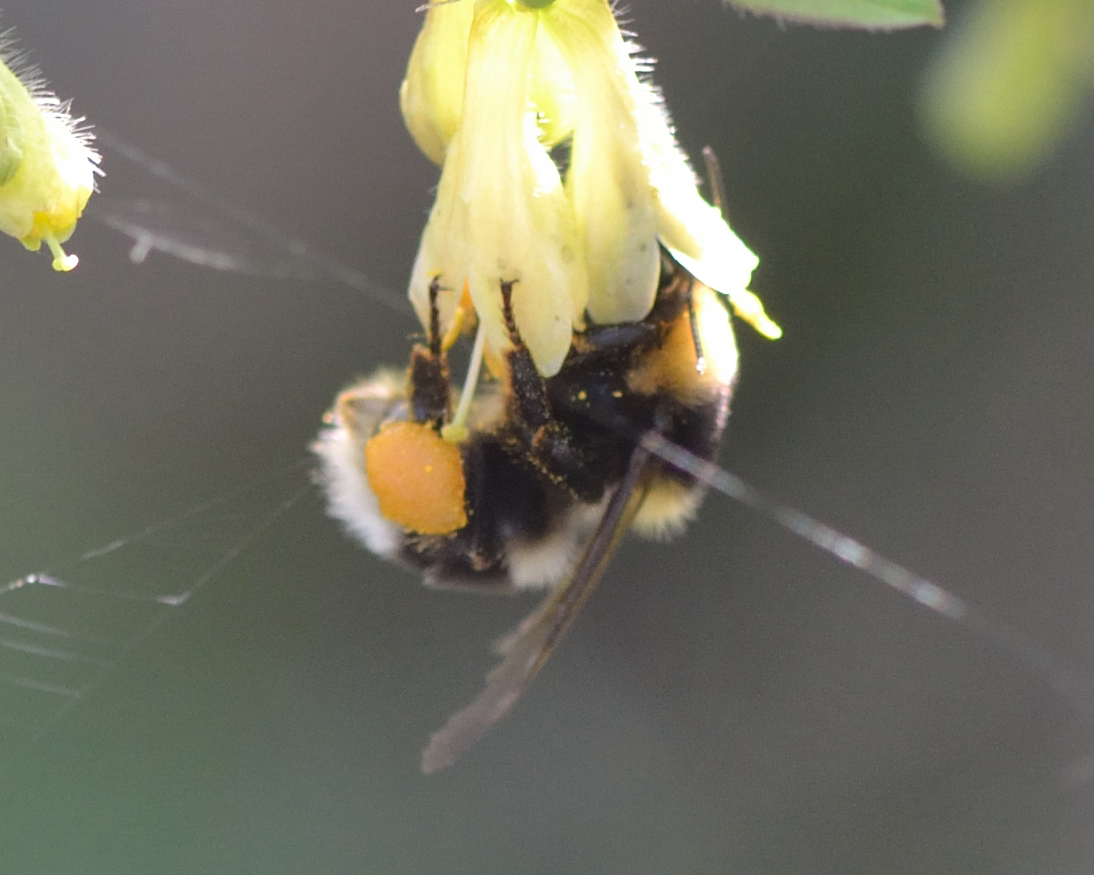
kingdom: Animalia
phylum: Arthropoda
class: Insecta
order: Hymenoptera
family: Apidae
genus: Bombus
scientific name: Bombus semenoviellus
